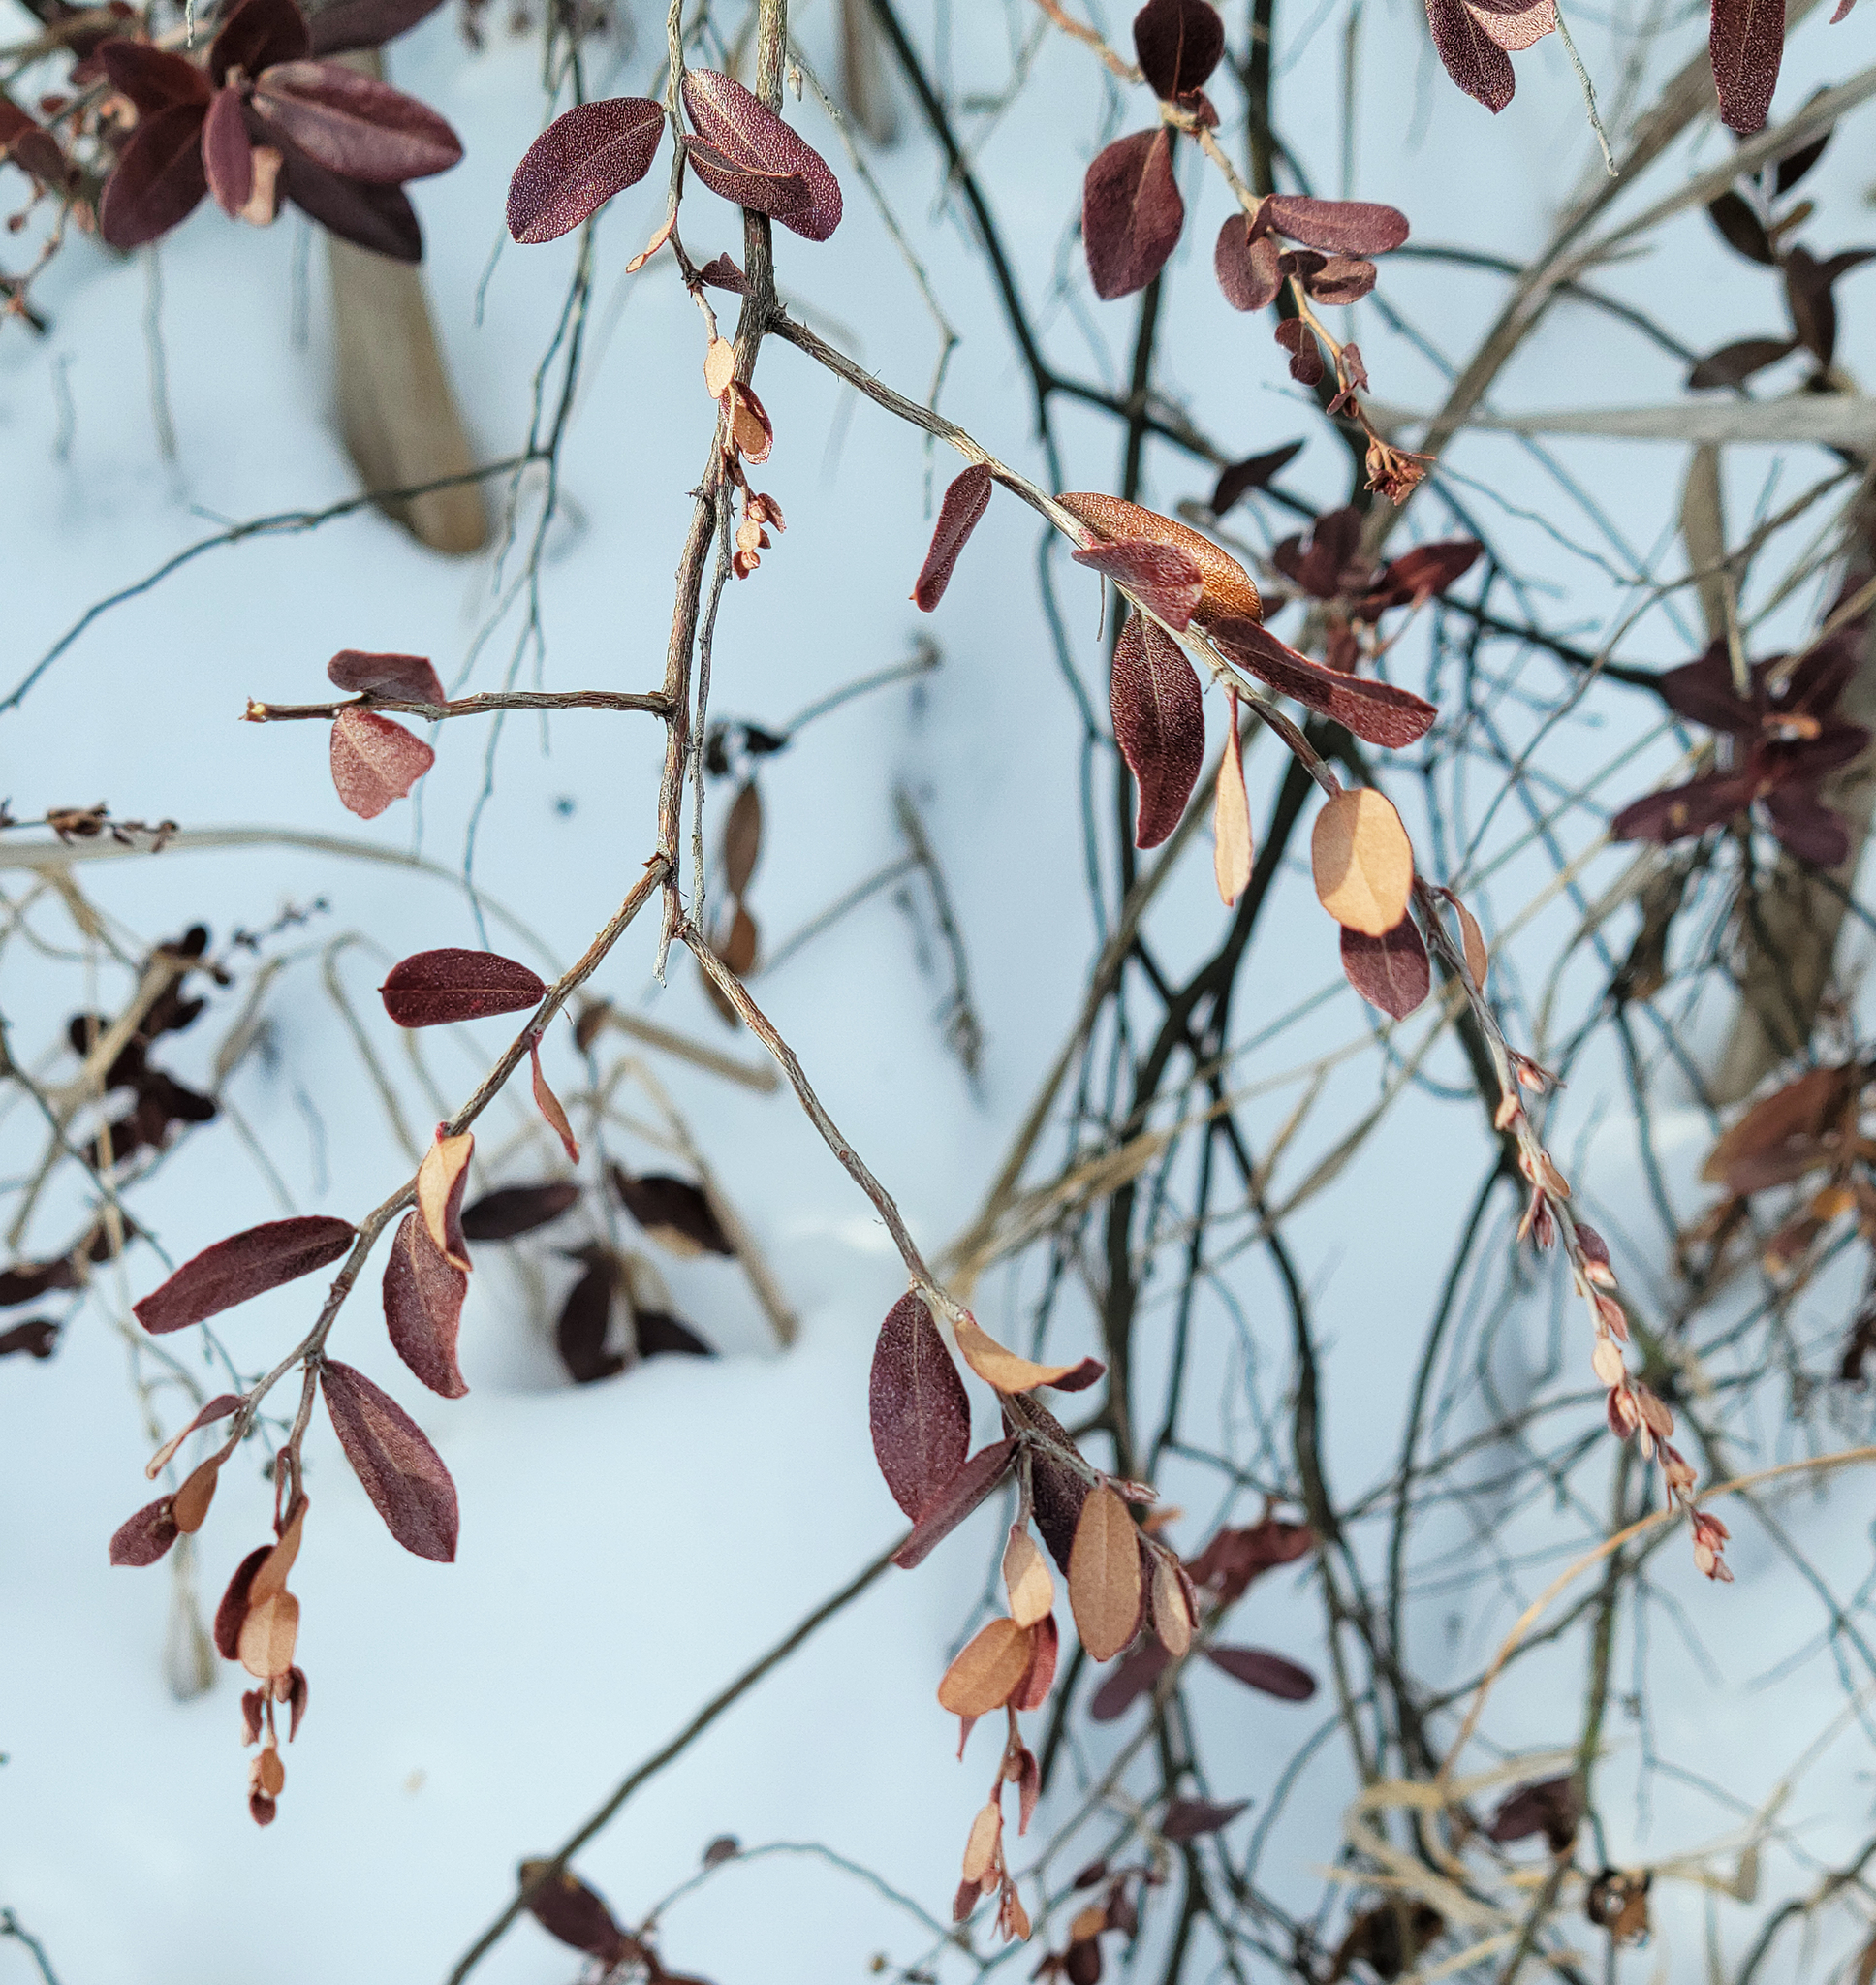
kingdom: Plantae
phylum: Tracheophyta
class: Magnoliopsida
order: Ericales
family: Ericaceae
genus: Chamaedaphne
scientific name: Chamaedaphne calyculata
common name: Leatherleaf
